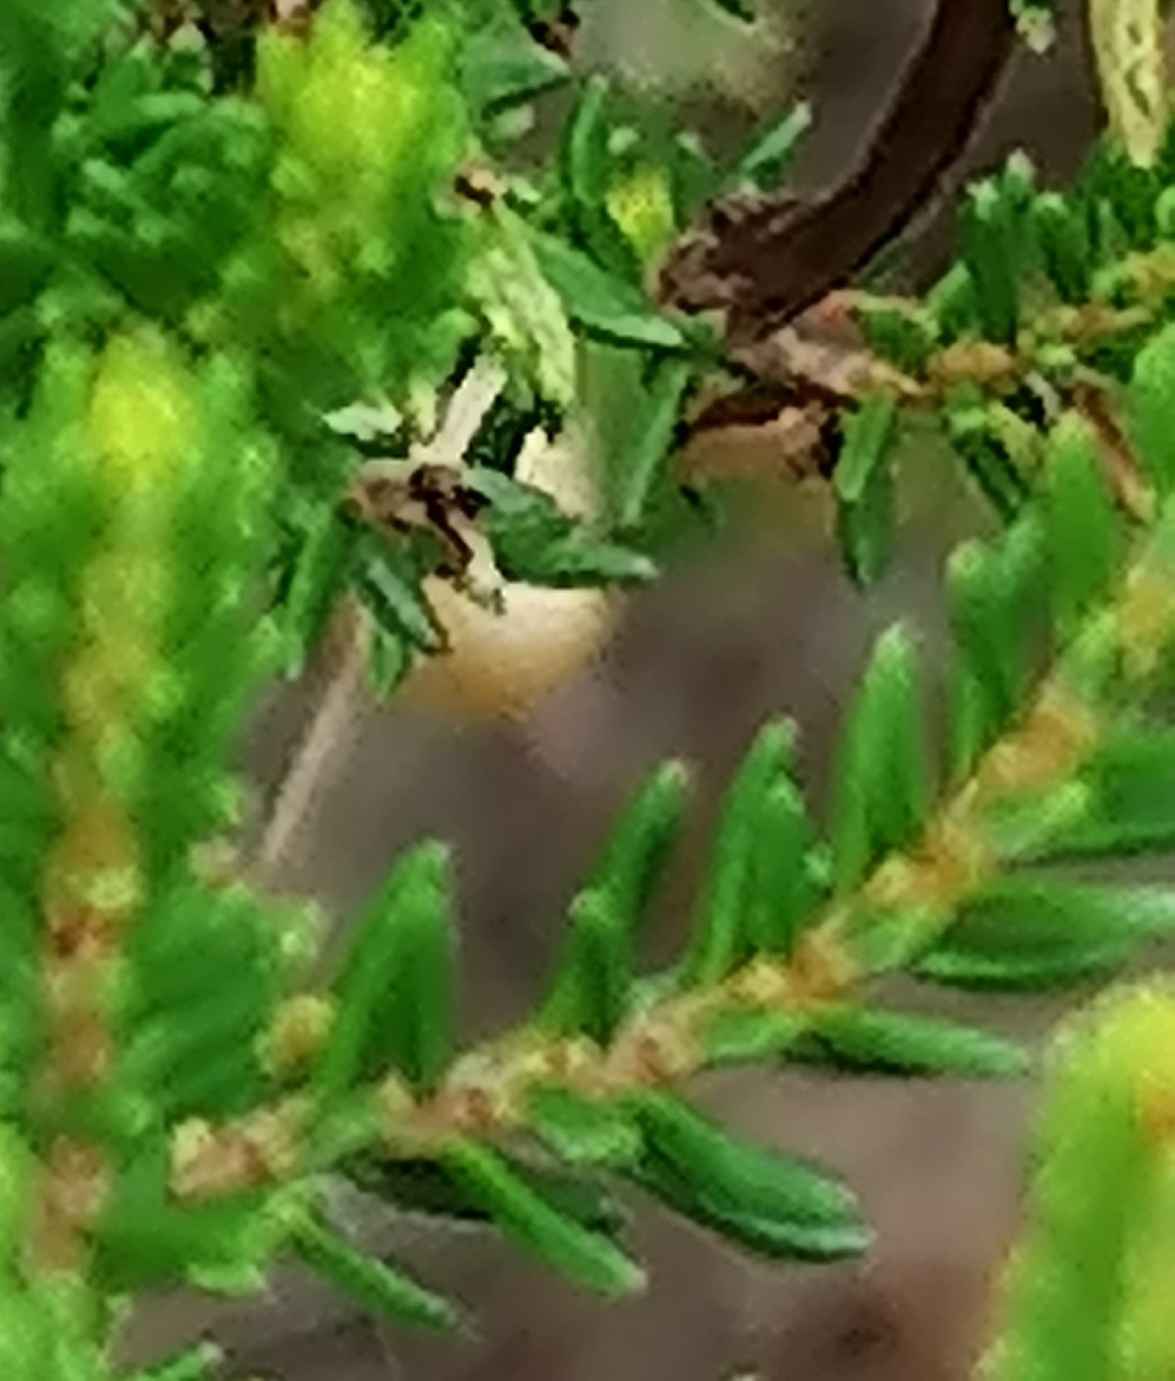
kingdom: Plantae
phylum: Tracheophyta
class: Magnoliopsida
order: Ericales
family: Ericaceae
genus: Erica
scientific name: Erica discolor
